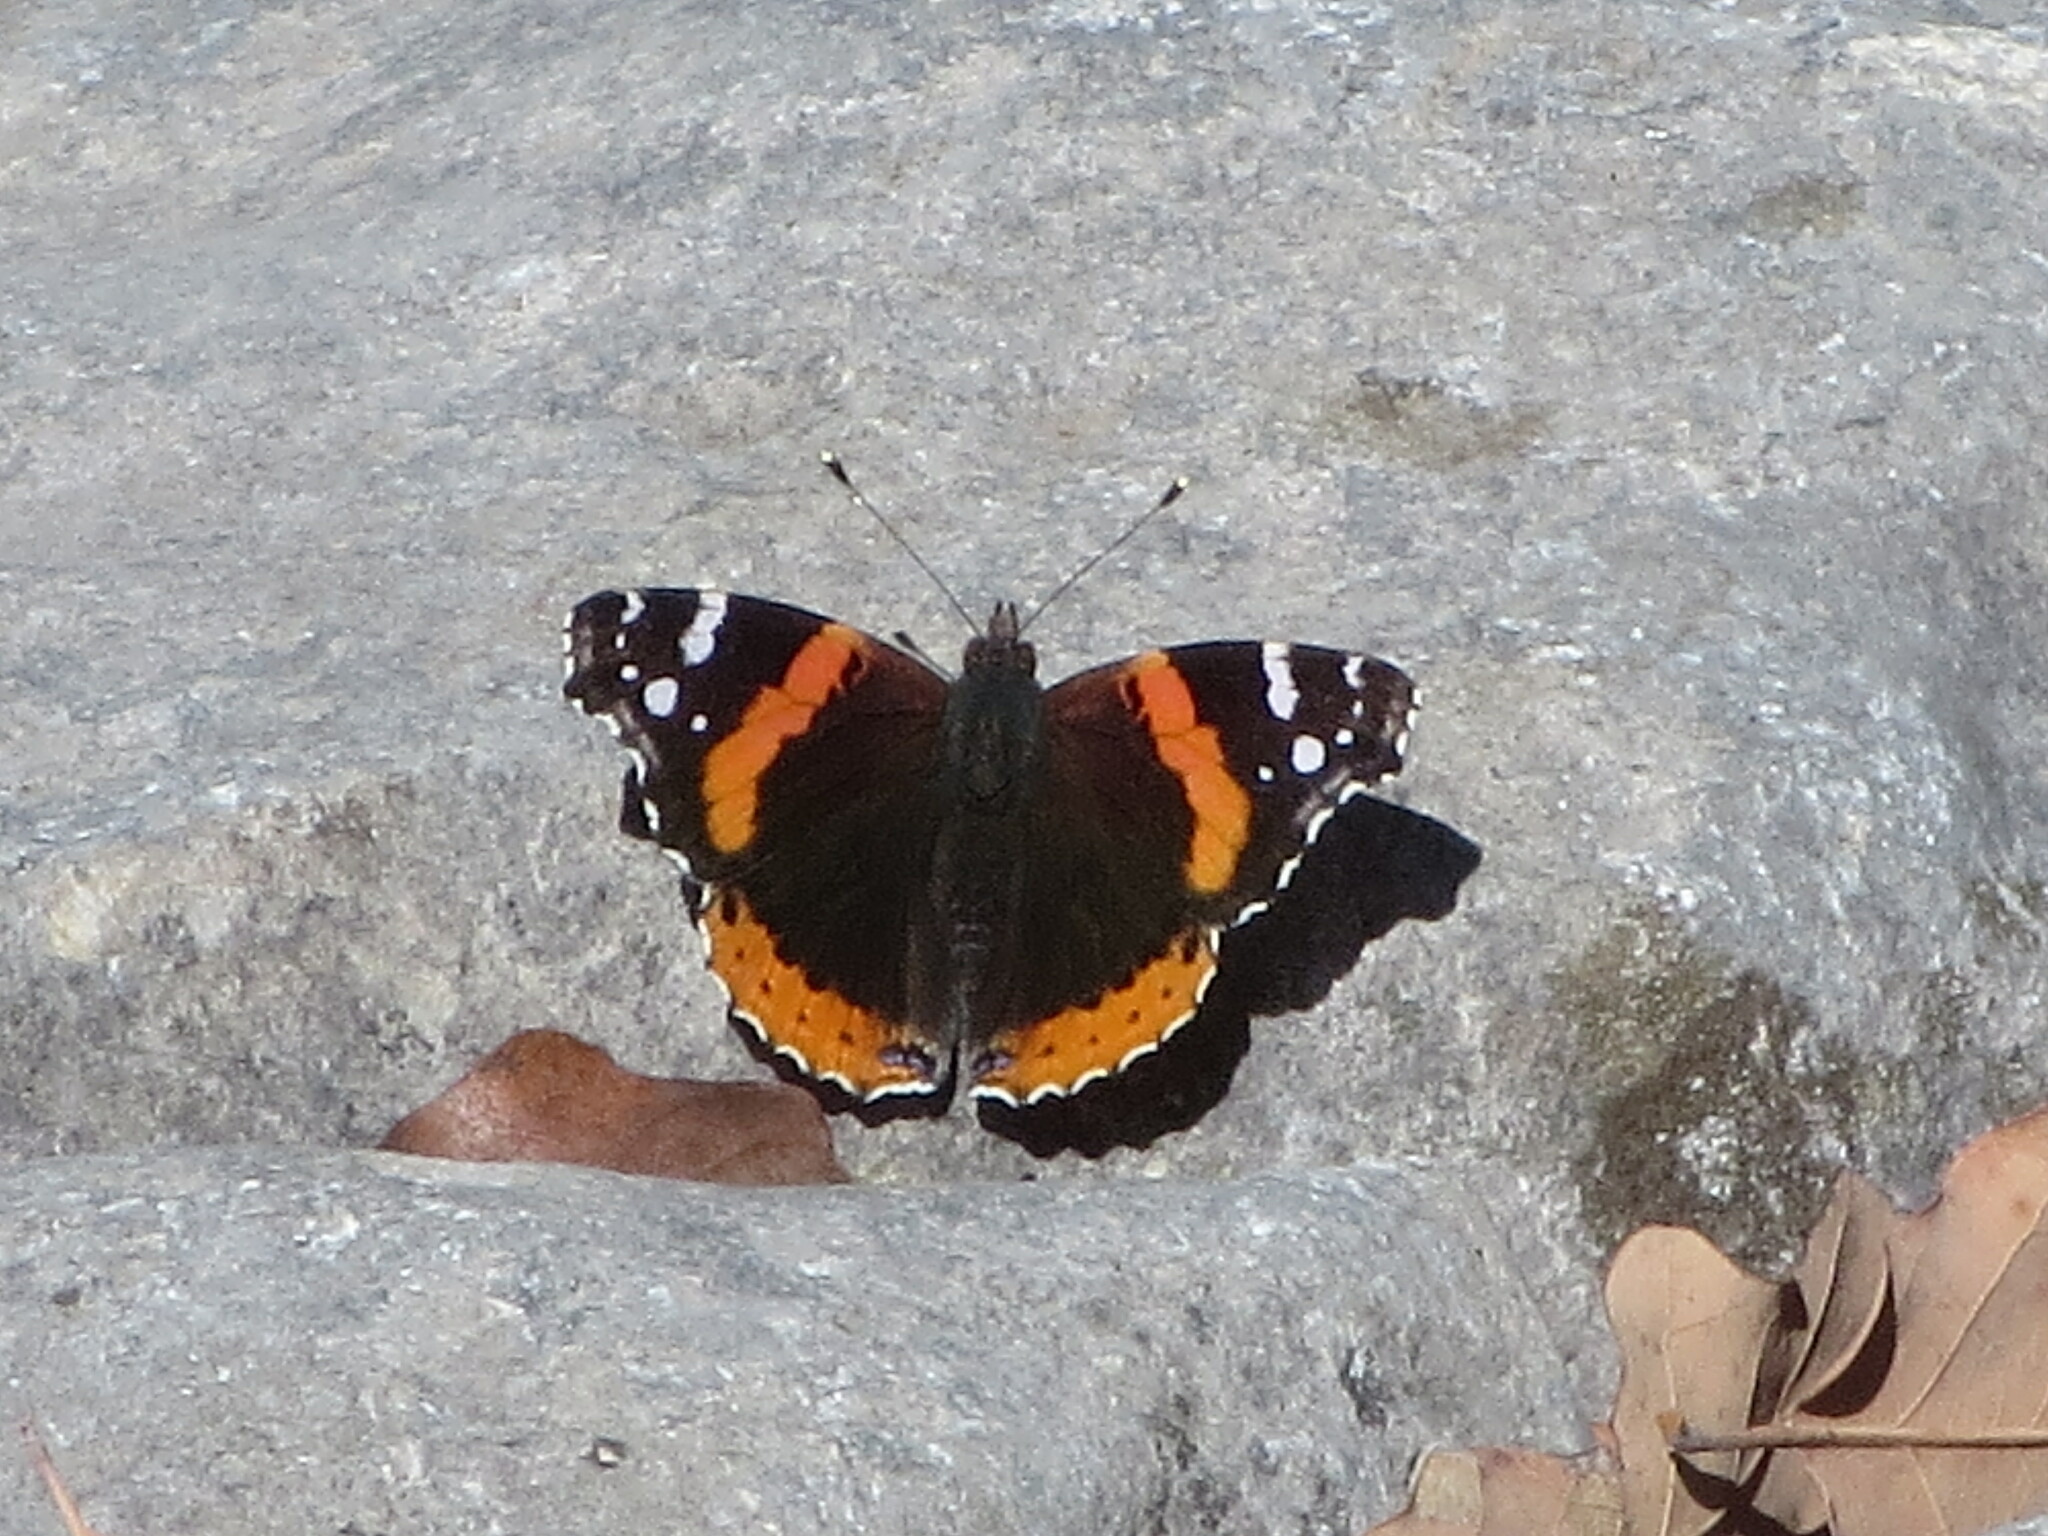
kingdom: Animalia
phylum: Arthropoda
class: Insecta
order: Lepidoptera
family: Nymphalidae
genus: Vanessa
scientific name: Vanessa atalanta
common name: Red admiral
